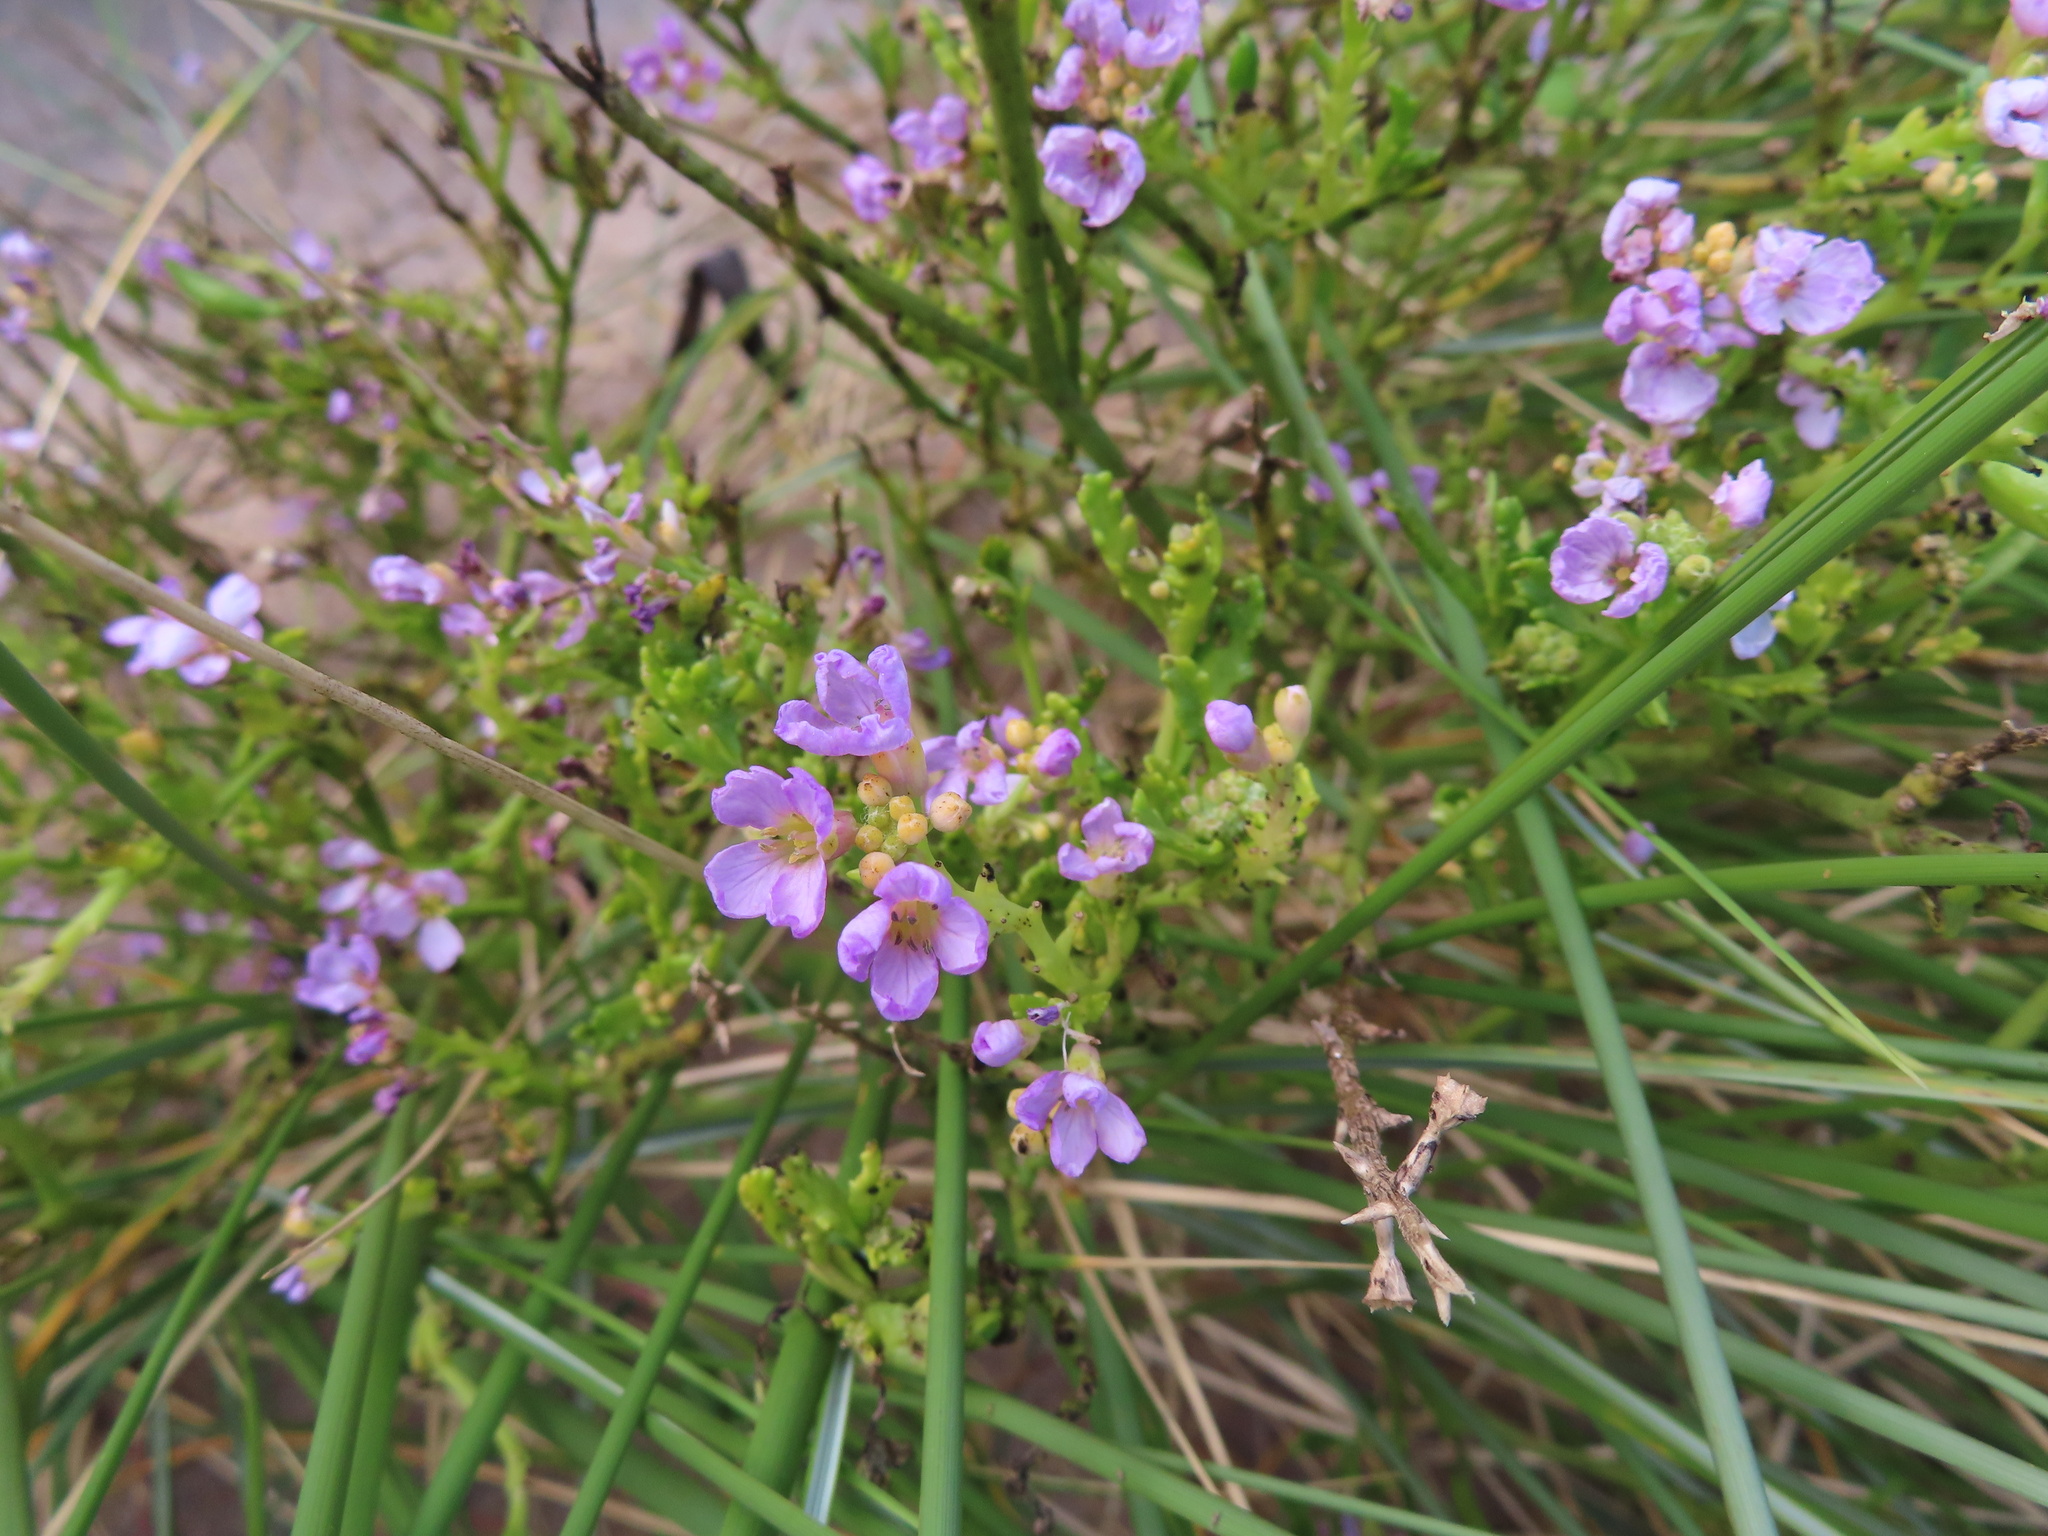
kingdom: Plantae
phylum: Tracheophyta
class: Magnoliopsida
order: Brassicales
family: Brassicaceae
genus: Cakile
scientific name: Cakile maritima
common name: Sea rocket
